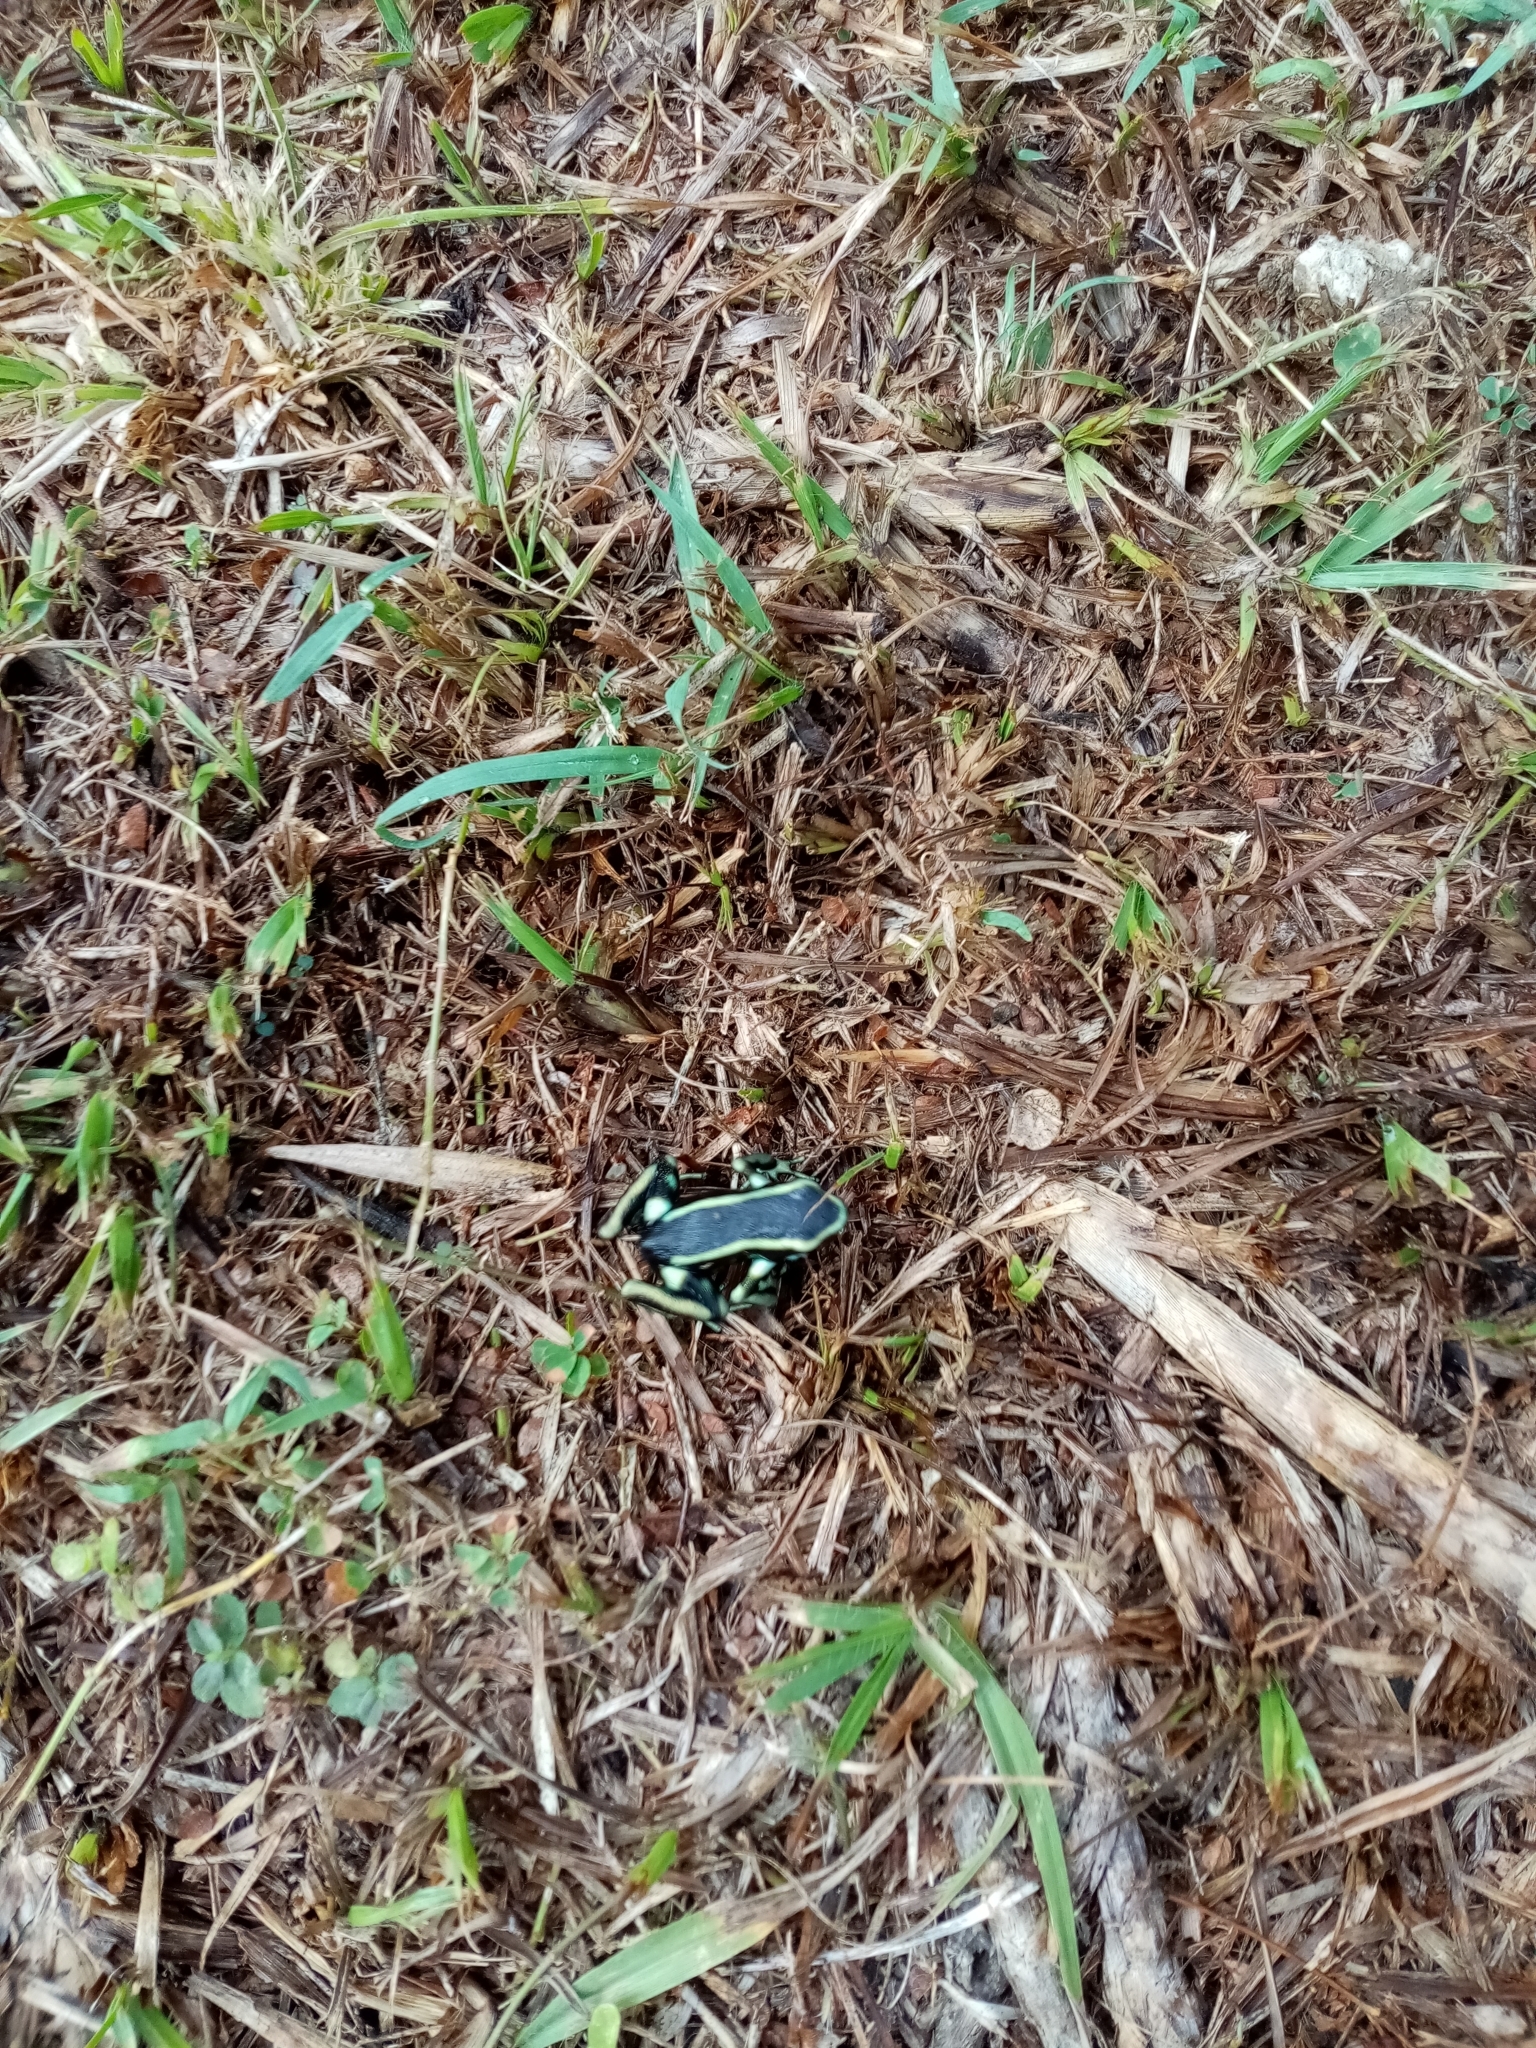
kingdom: Animalia
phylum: Chordata
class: Amphibia
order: Anura
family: Dendrobatidae
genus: Dendrobates
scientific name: Dendrobates truncatus
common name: Yellow-striped poison frog
